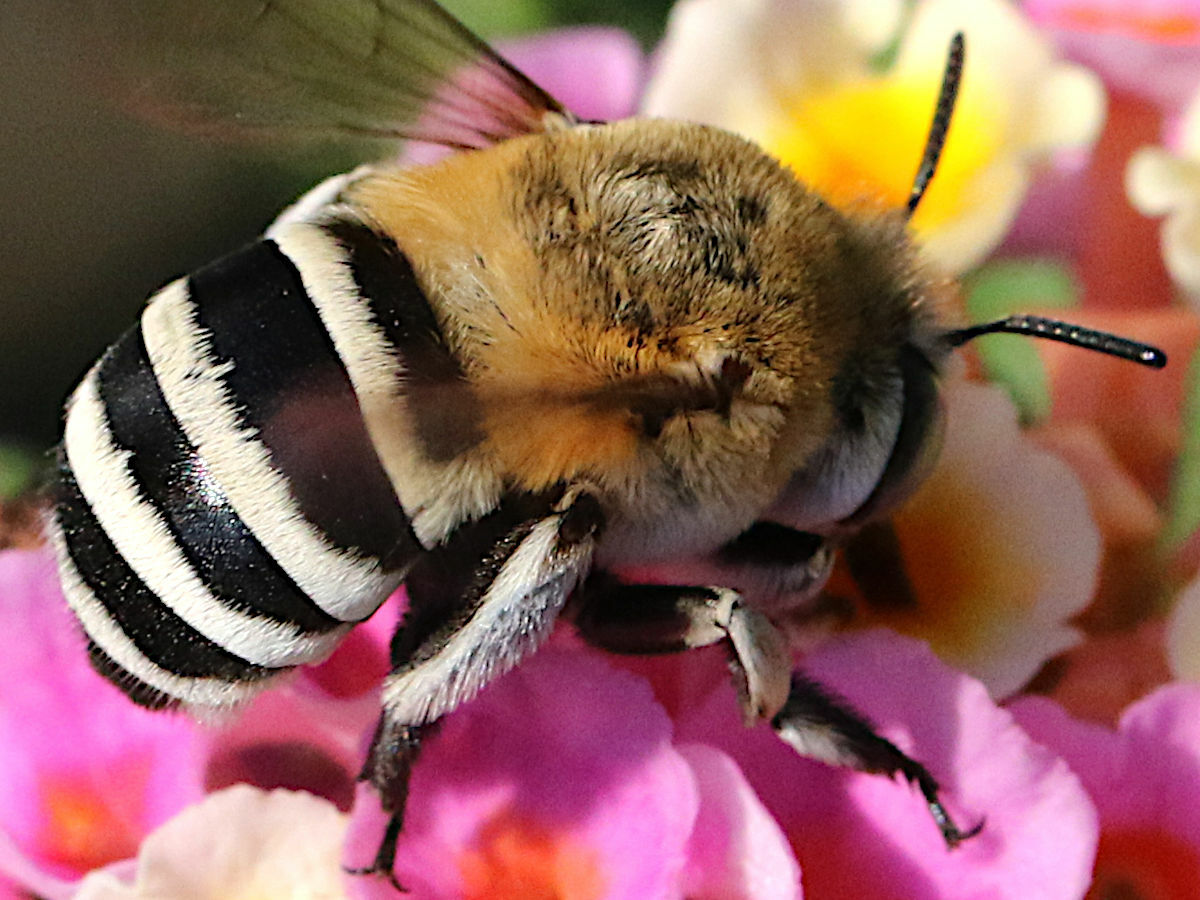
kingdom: Animalia
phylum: Arthropoda
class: Insecta
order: Hymenoptera
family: Apidae
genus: Amegilla
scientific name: Amegilla quadrifasciata
